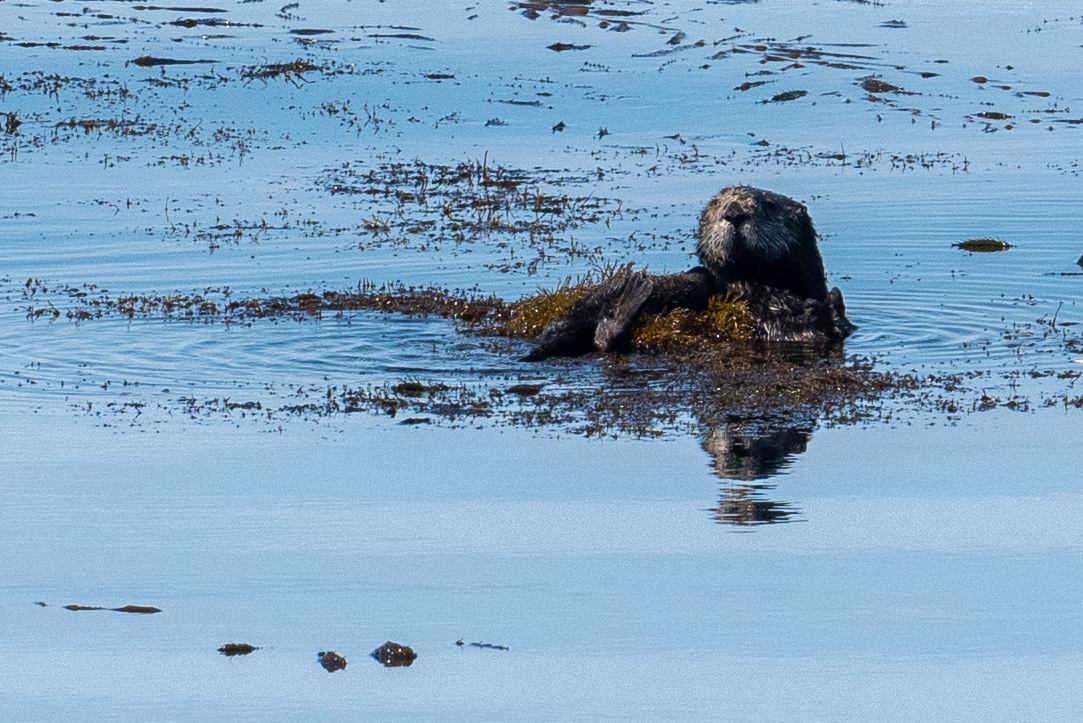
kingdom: Animalia
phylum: Chordata
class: Mammalia
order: Carnivora
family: Mustelidae
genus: Enhydra
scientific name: Enhydra lutris
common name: Sea otter
